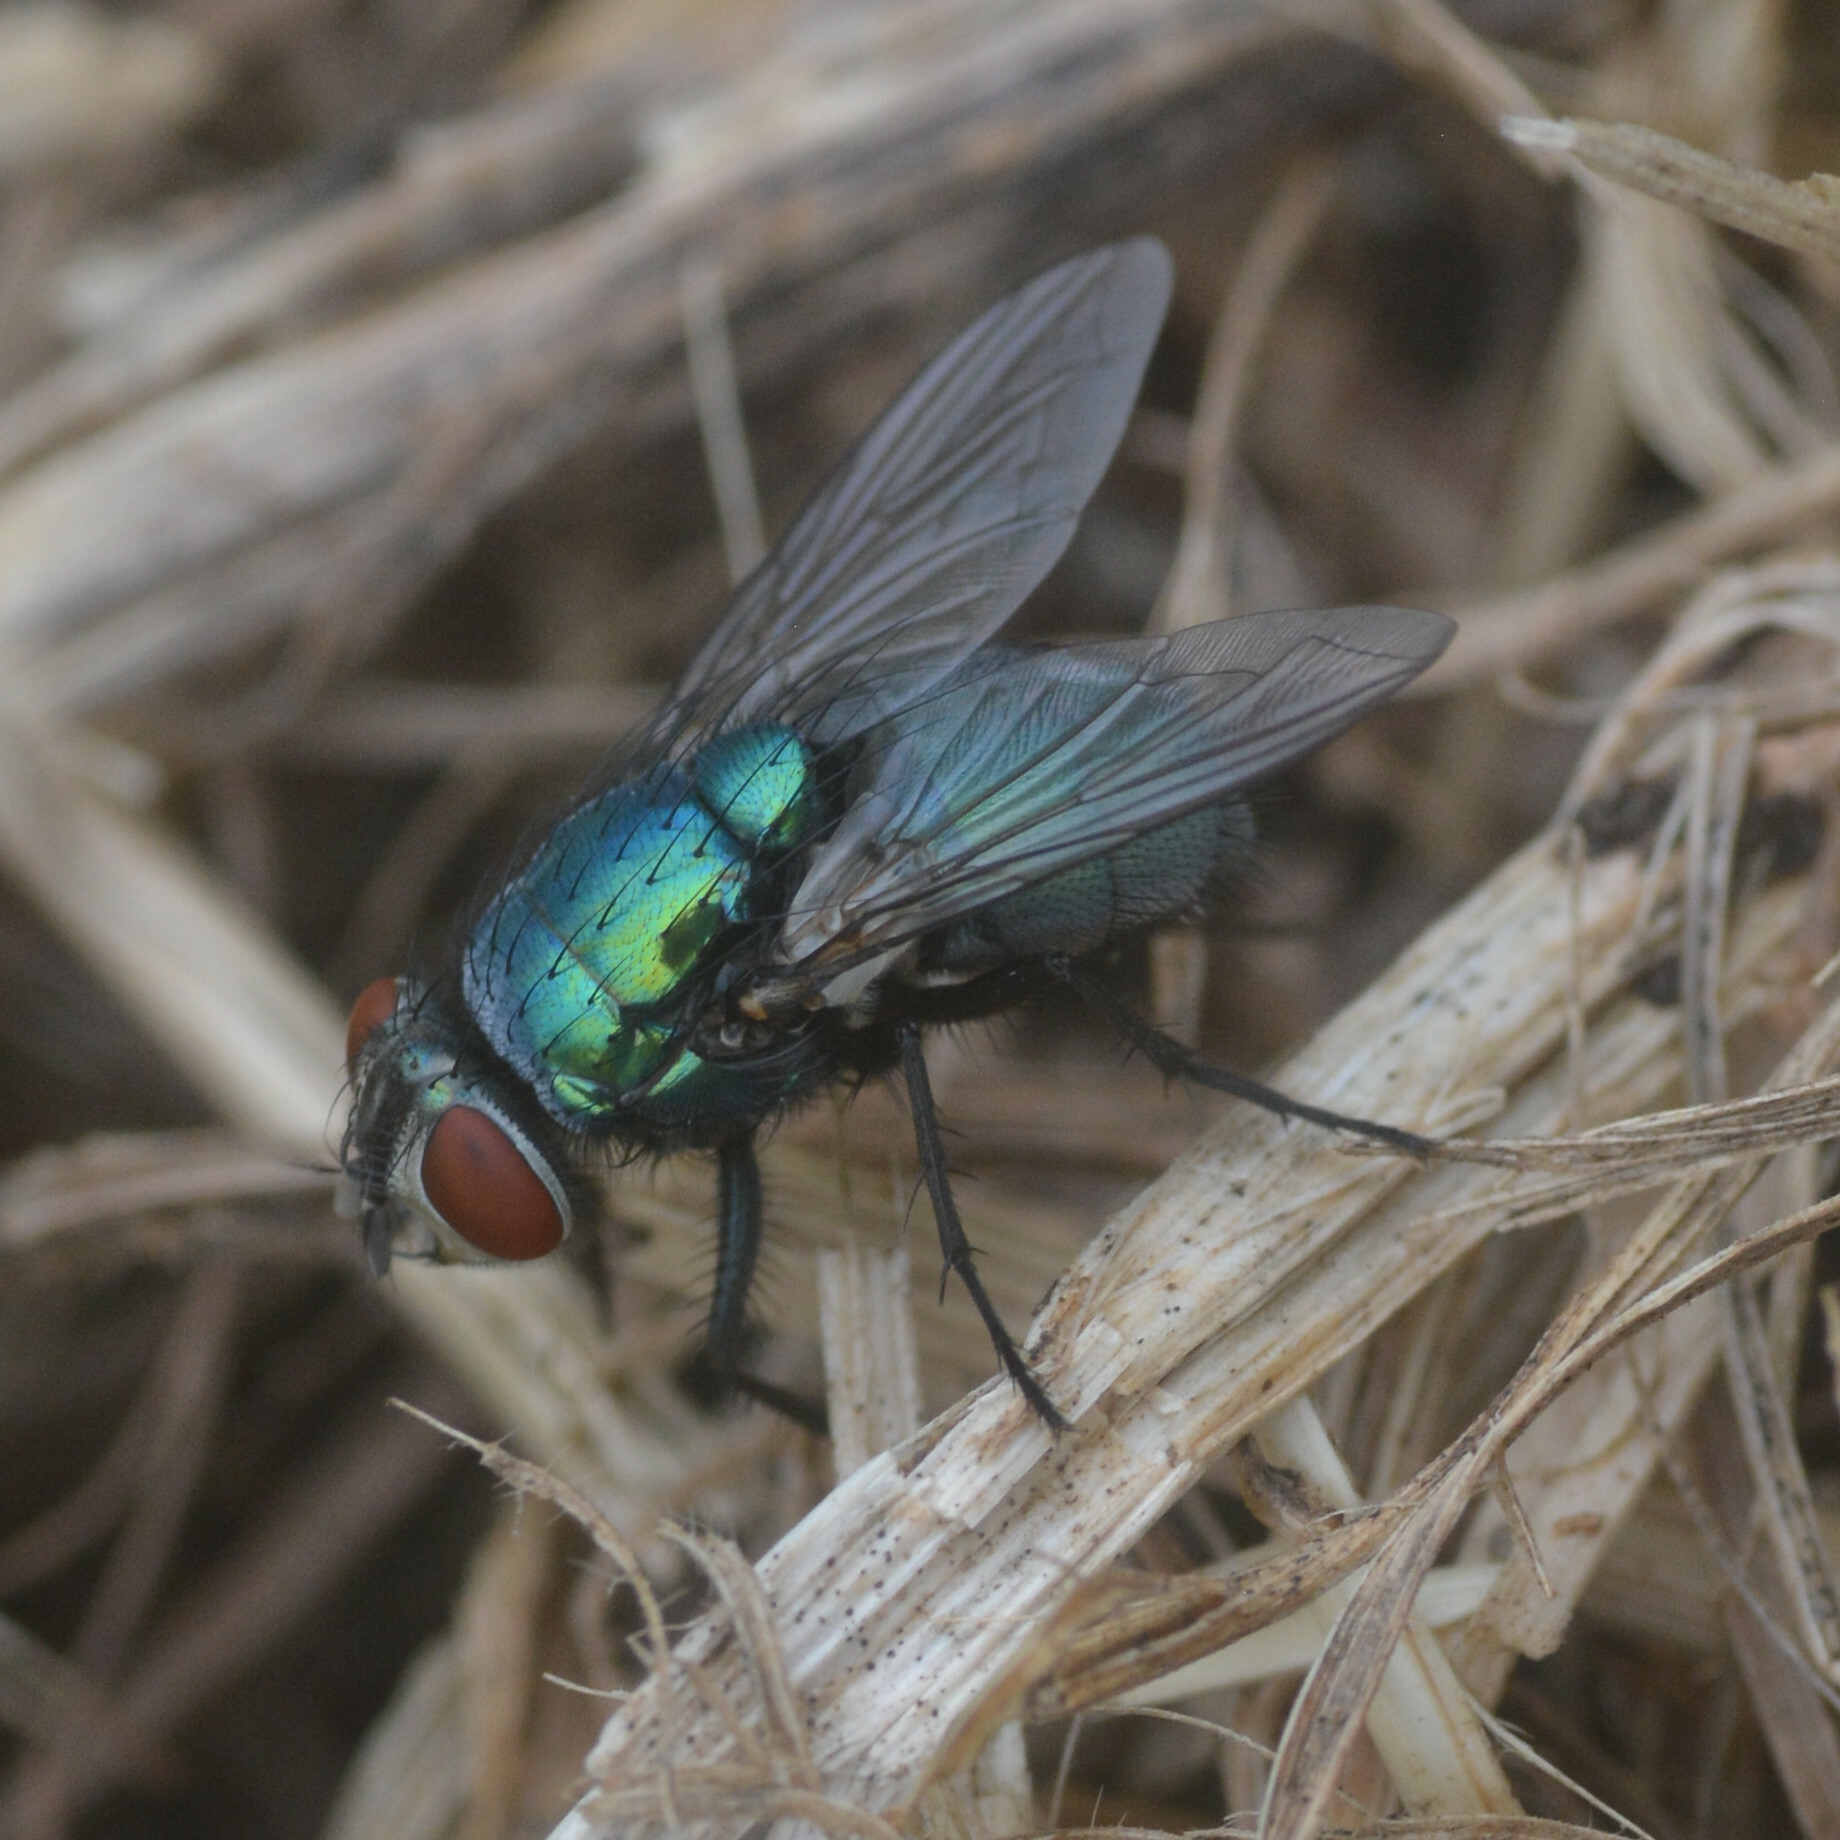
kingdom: Animalia
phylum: Arthropoda
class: Insecta
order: Diptera
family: Calliphoridae
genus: Lucilia
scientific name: Lucilia sericata
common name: Blow fly
